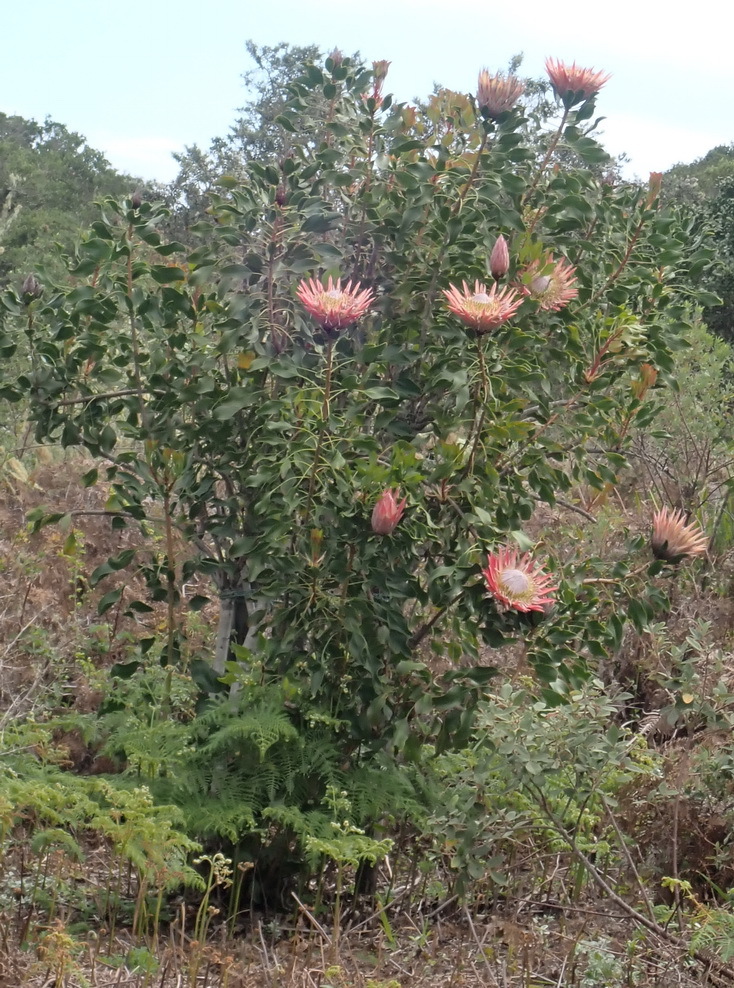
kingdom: Plantae
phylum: Tracheophyta
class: Magnoliopsida
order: Proteales
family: Proteaceae
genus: Protea
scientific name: Protea cynaroides
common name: King protea
